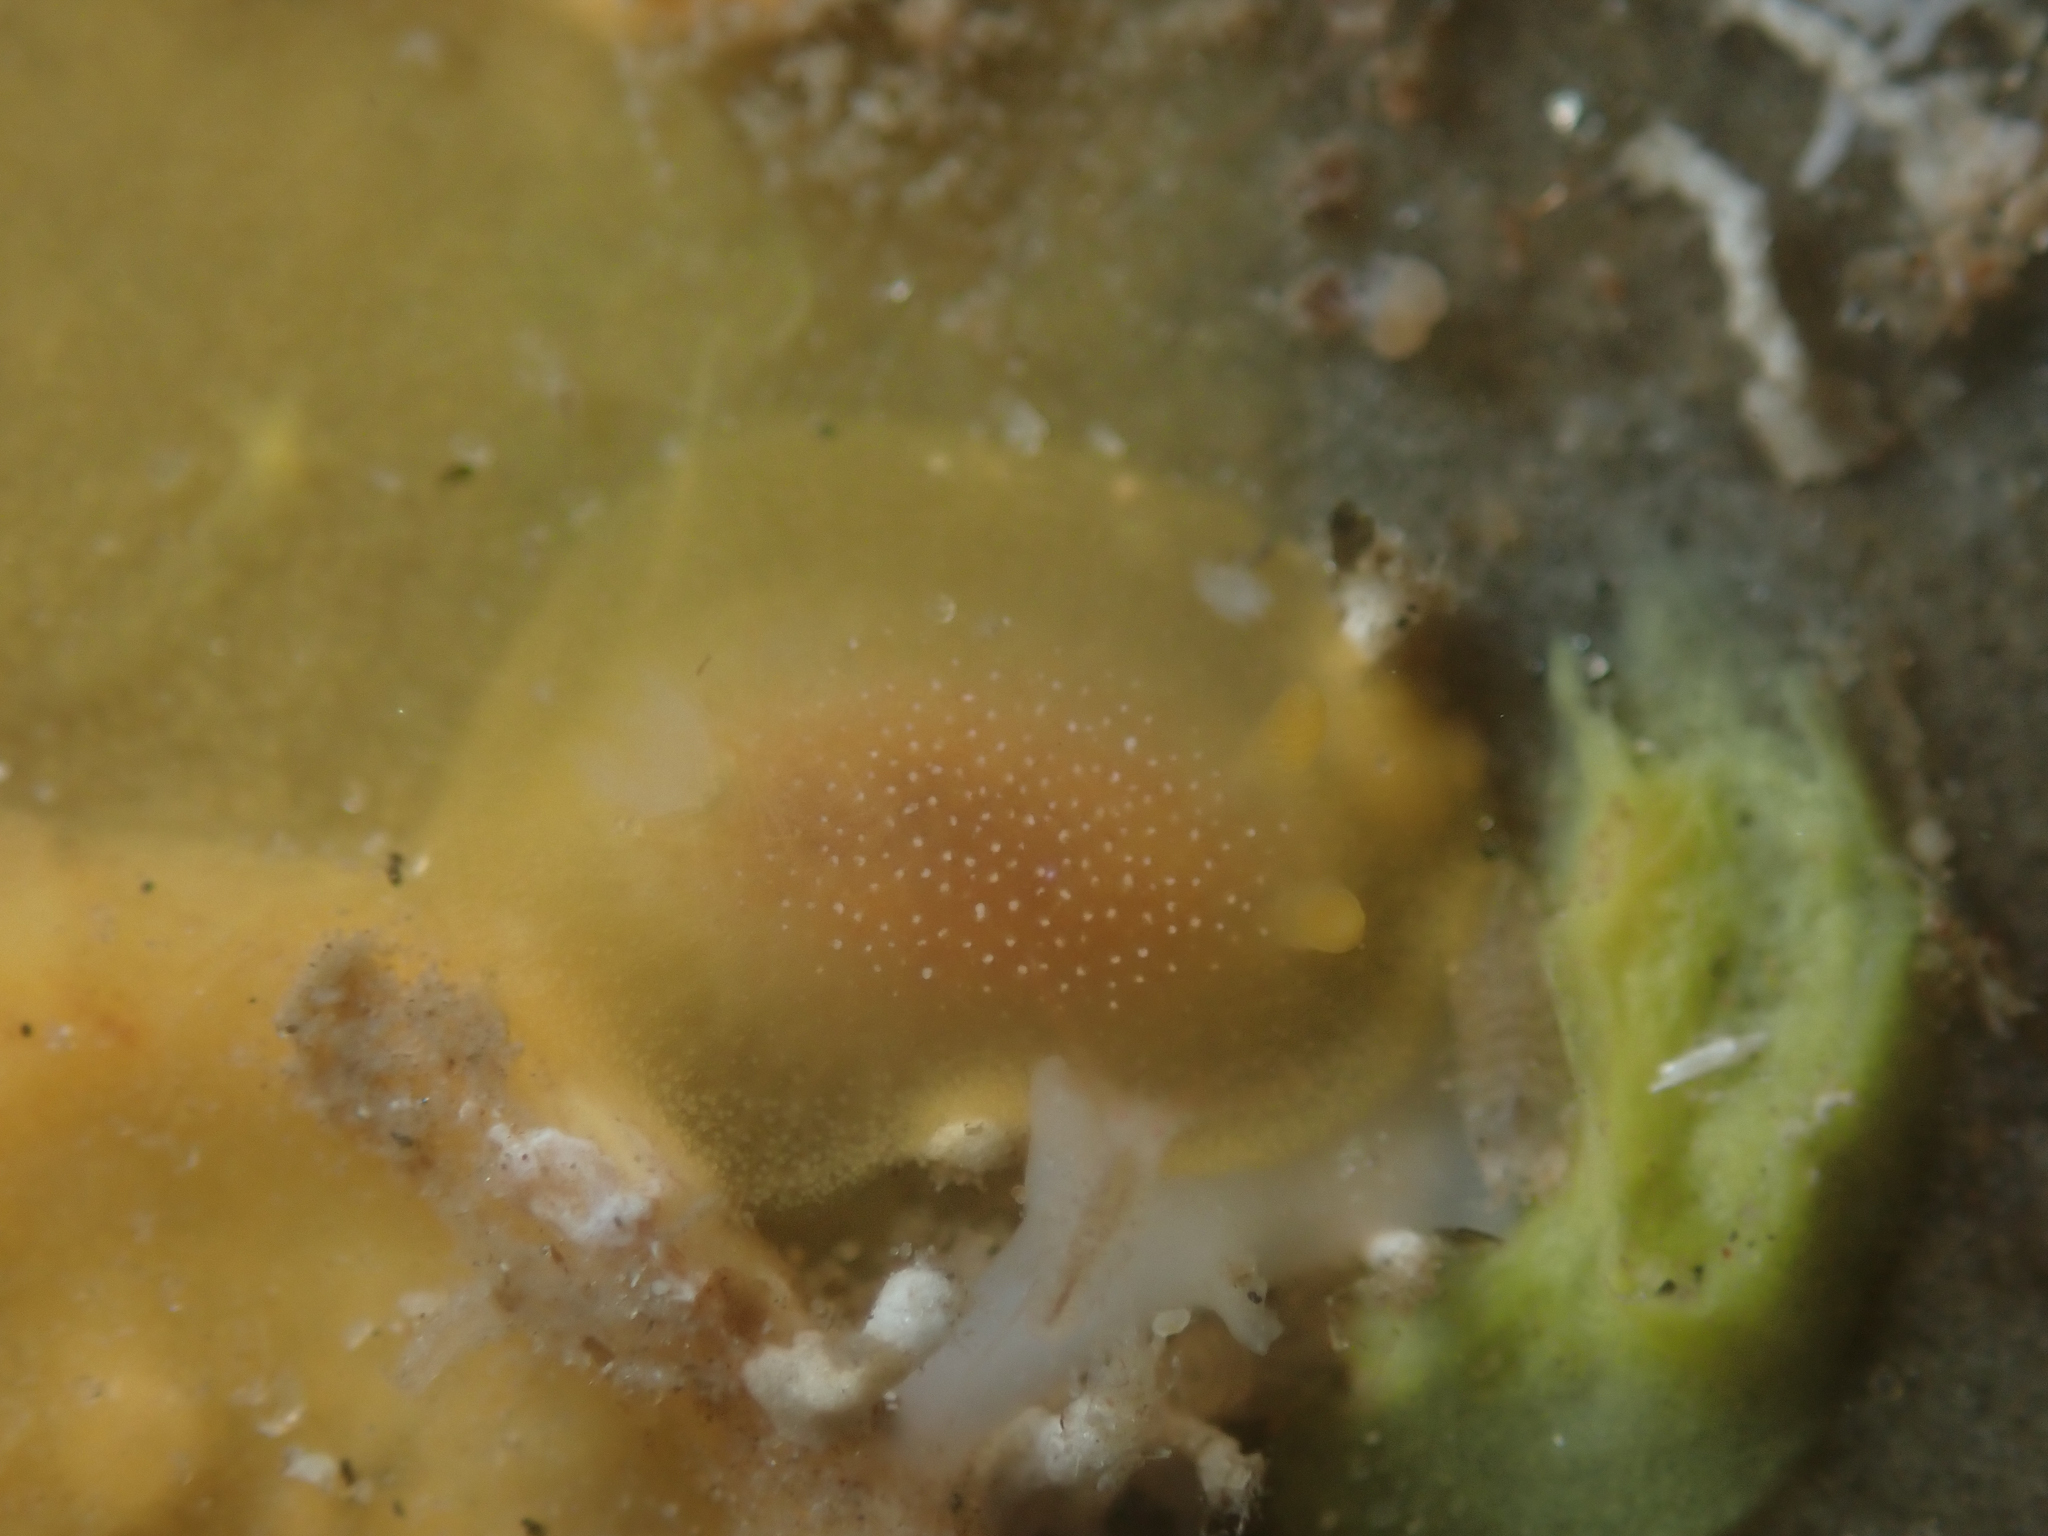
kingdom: Animalia
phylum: Mollusca
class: Gastropoda
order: Nudibranchia
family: Dendrodorididae
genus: Doriopsilla
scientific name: Doriopsilla albopunctata
